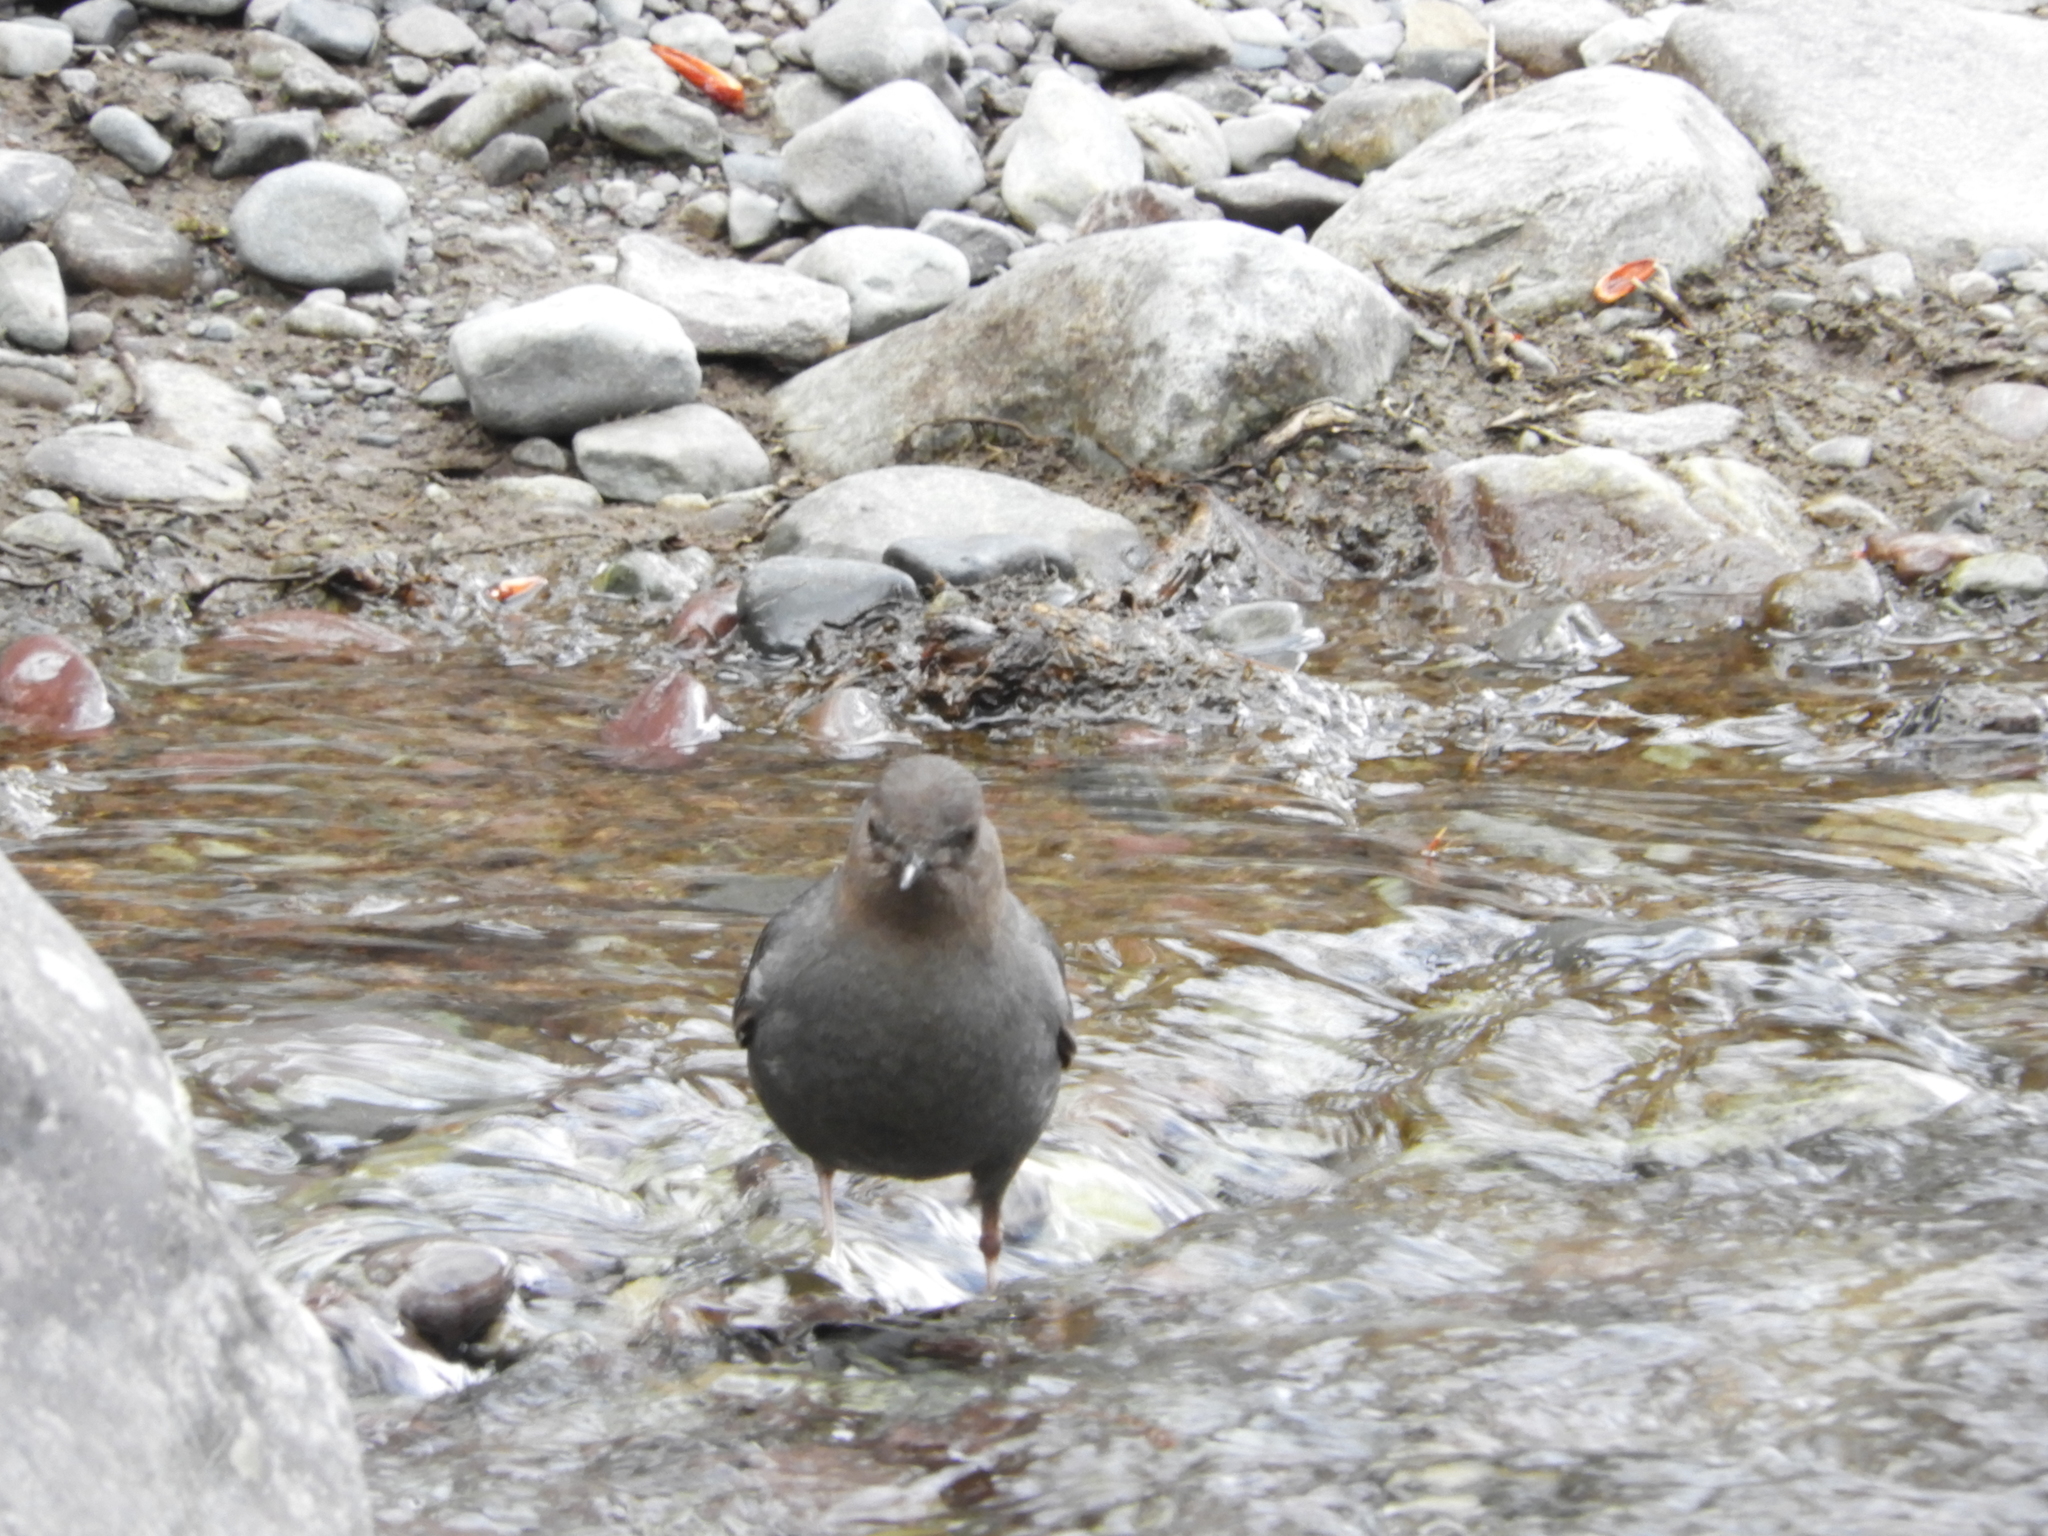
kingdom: Animalia
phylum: Chordata
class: Aves
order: Passeriformes
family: Cinclidae
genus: Cinclus
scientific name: Cinclus mexicanus
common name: American dipper
